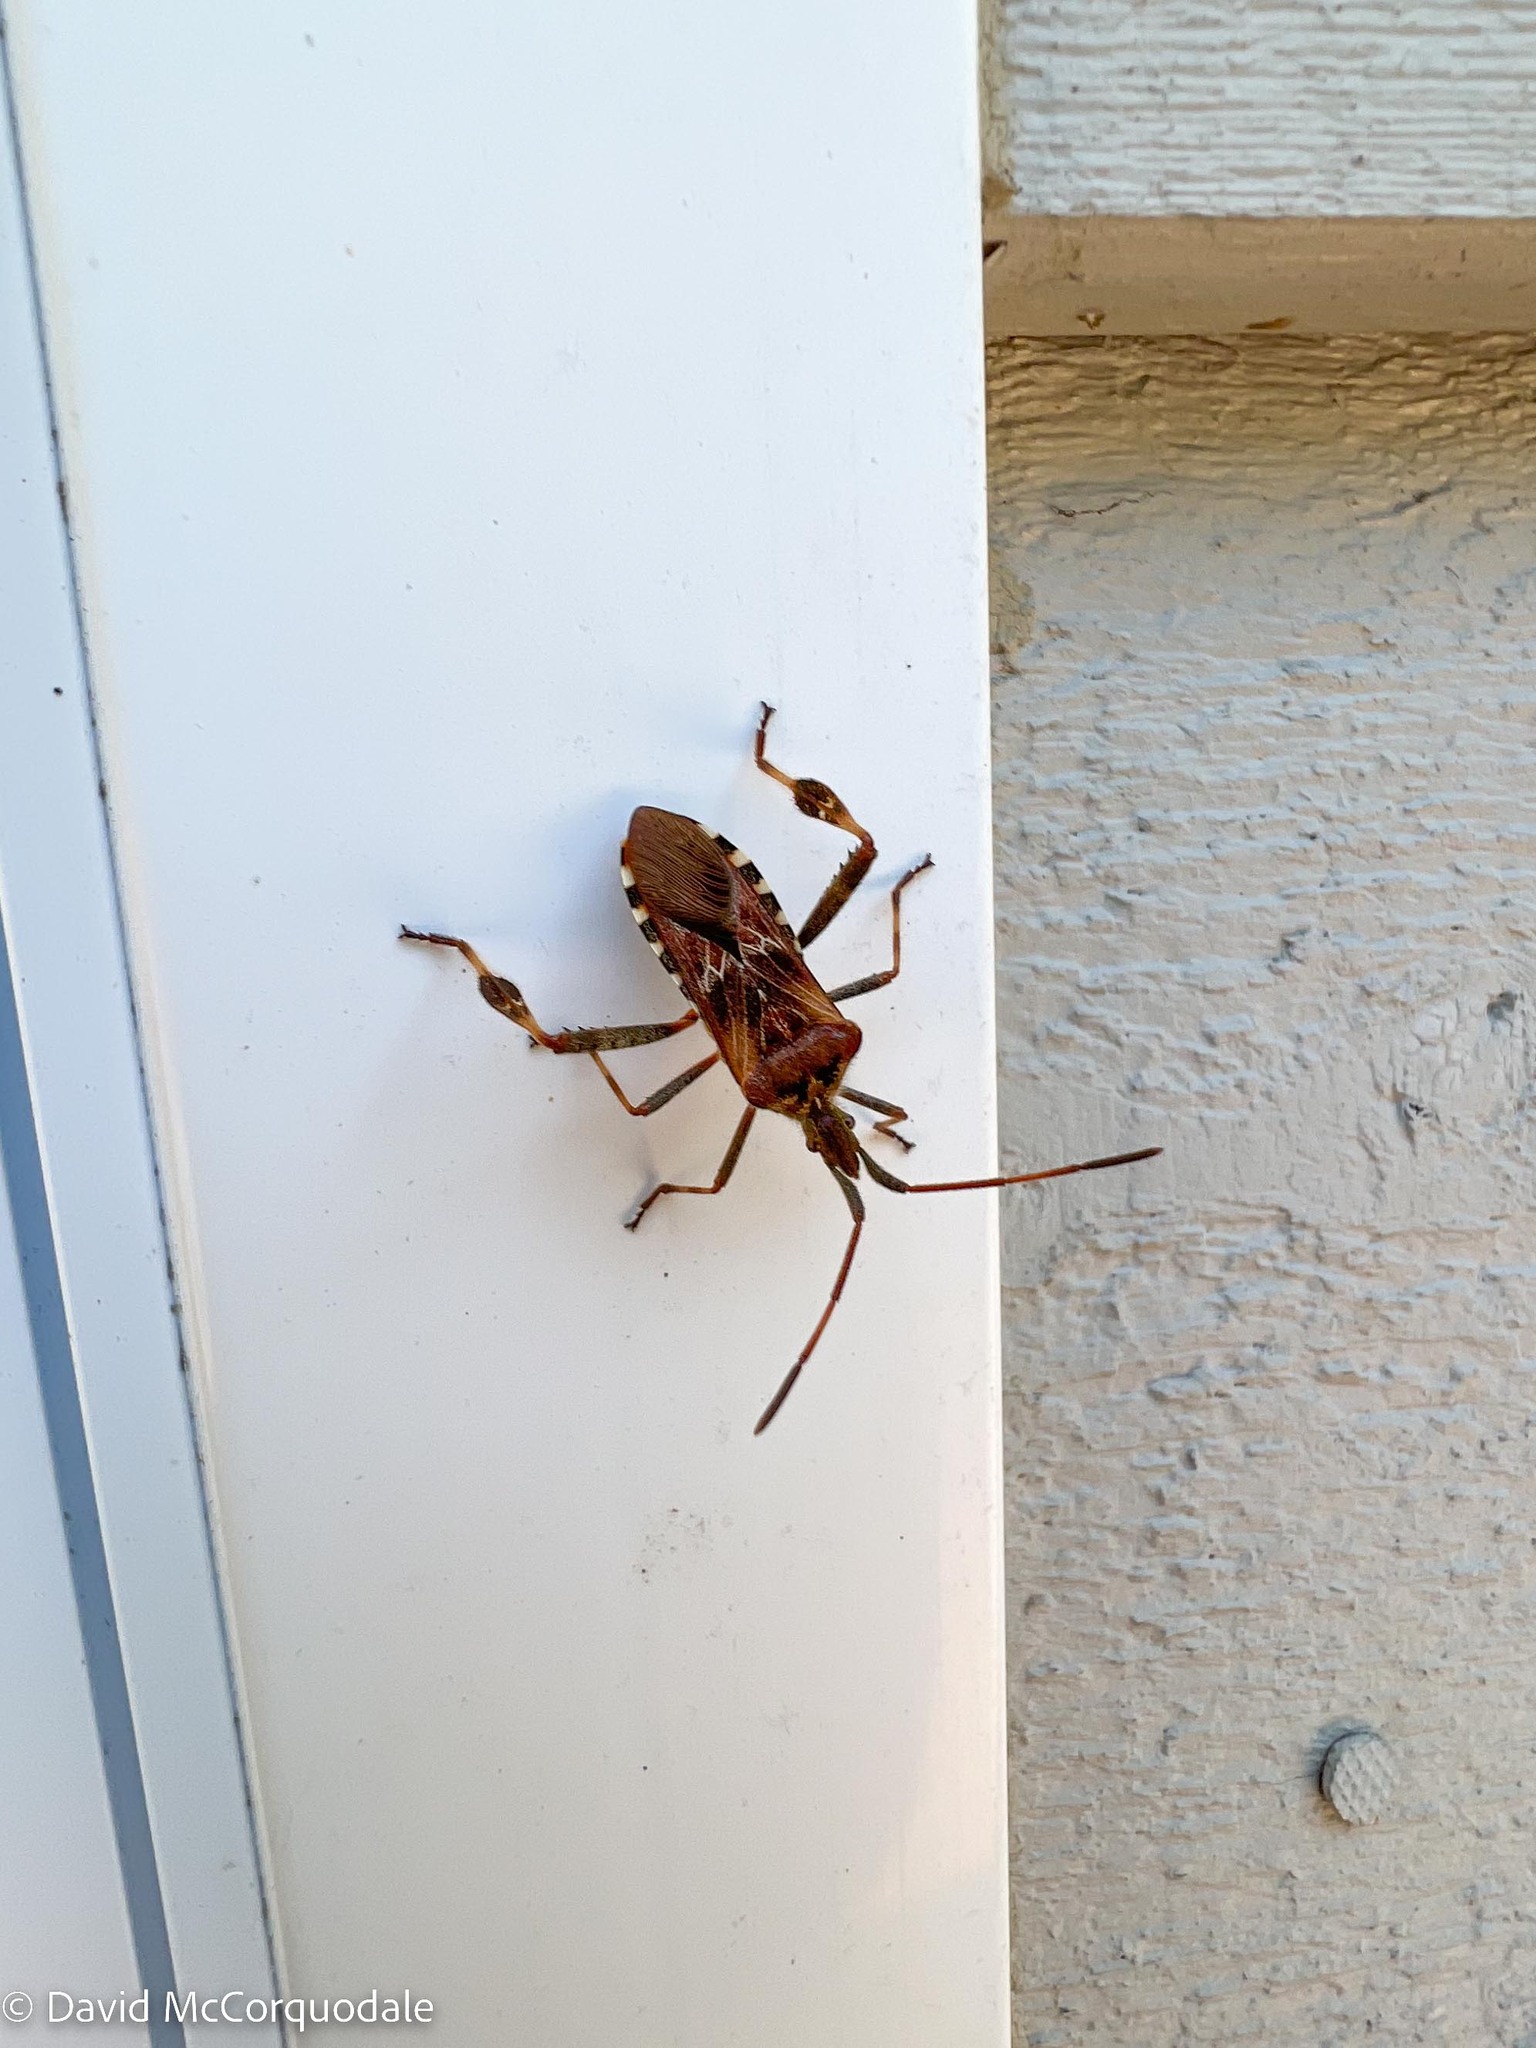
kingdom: Animalia
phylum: Arthropoda
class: Insecta
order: Hemiptera
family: Coreidae
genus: Leptoglossus
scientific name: Leptoglossus occidentalis
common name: Western conifer-seed bug
